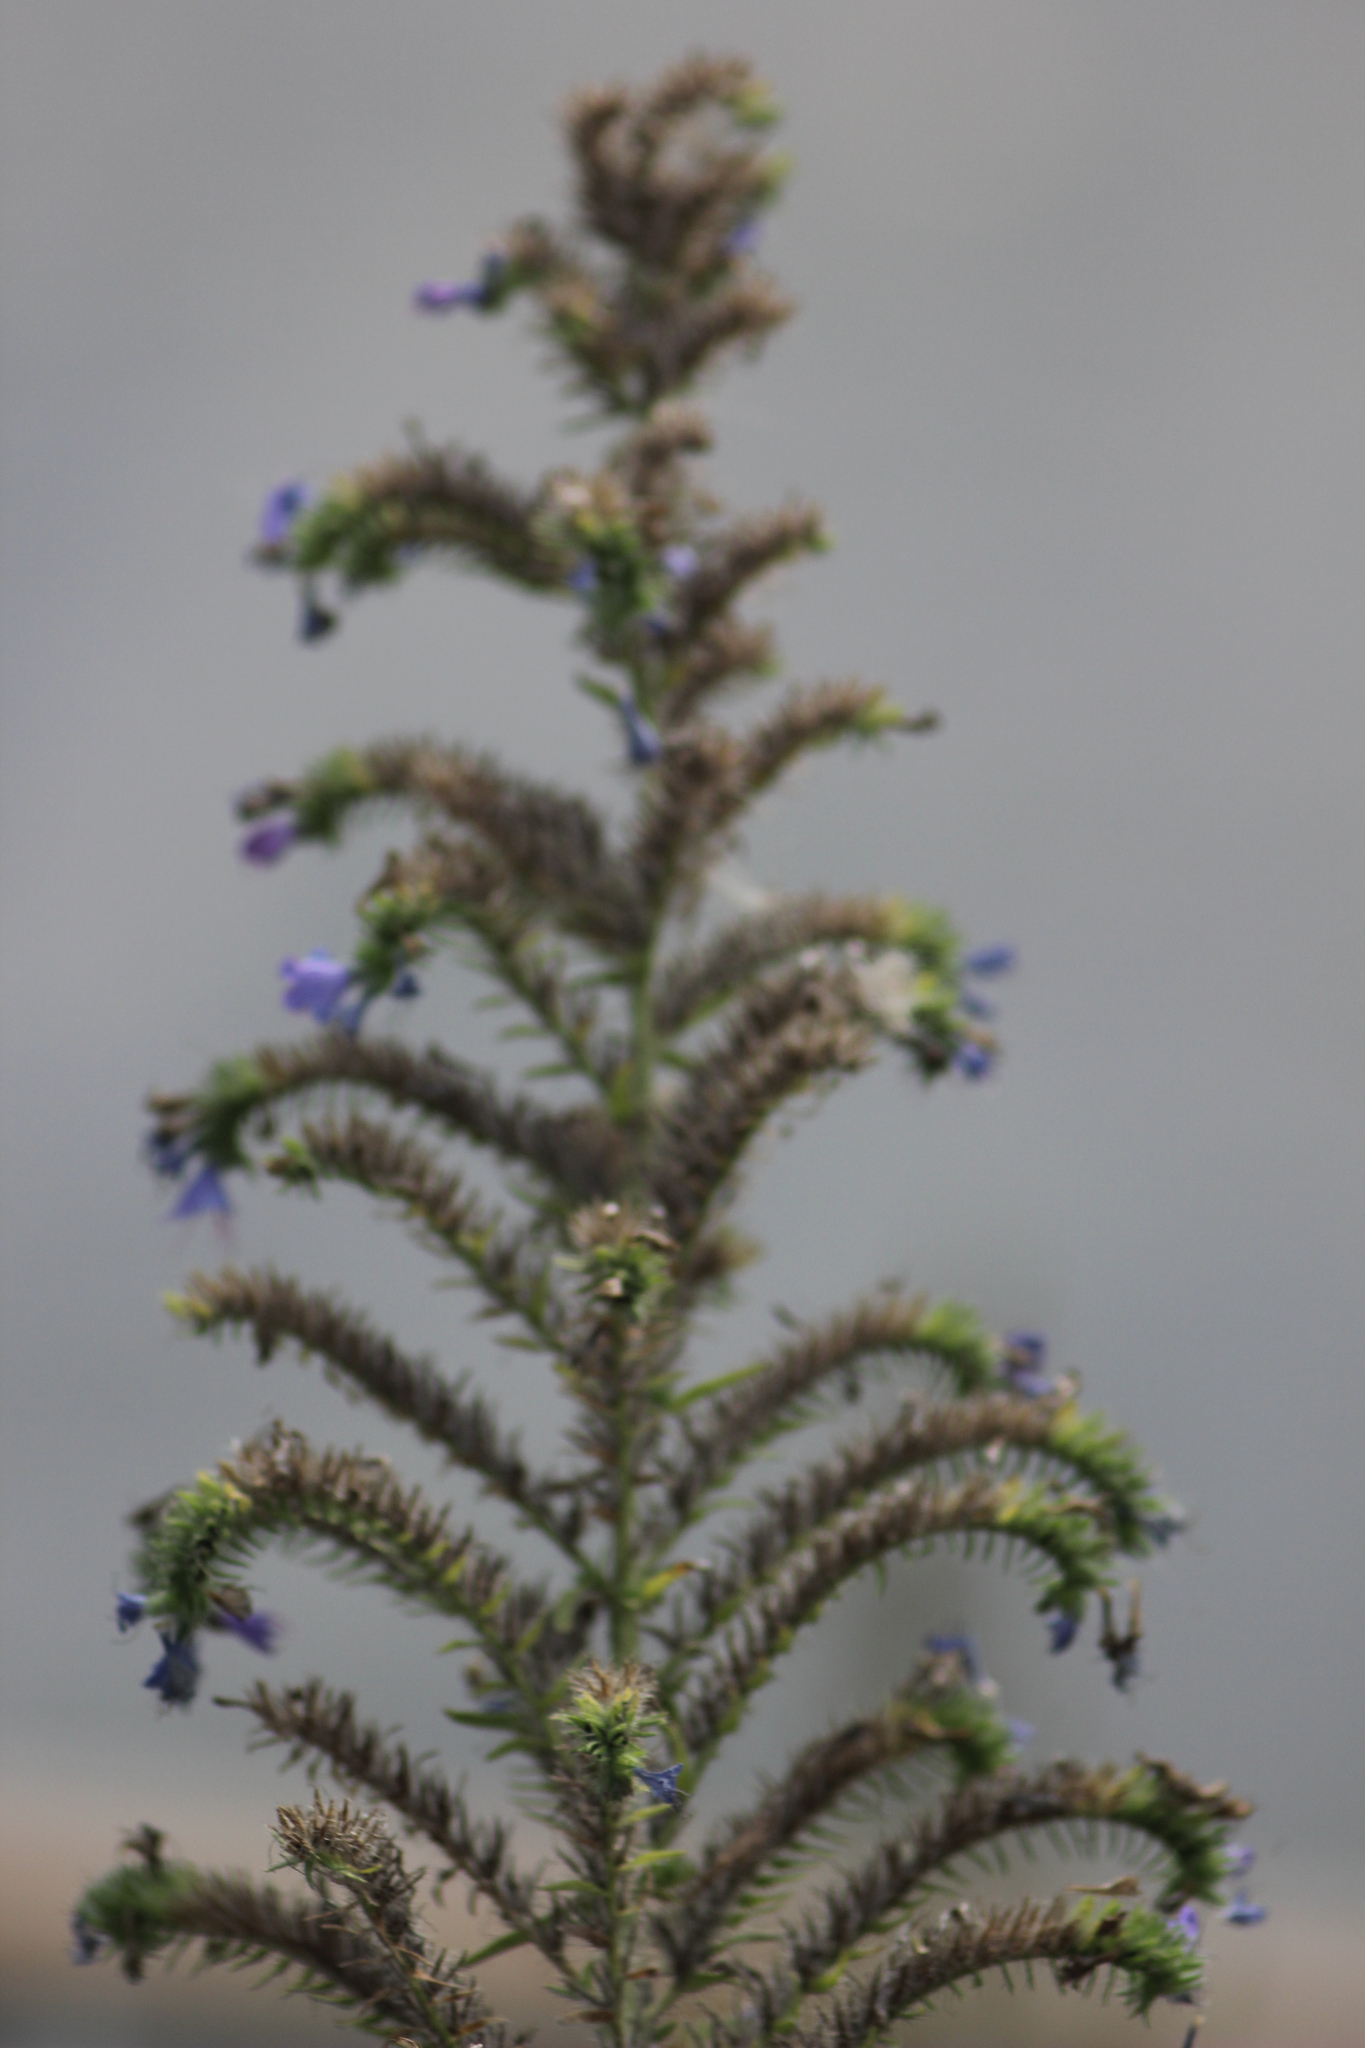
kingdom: Plantae
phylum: Tracheophyta
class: Magnoliopsida
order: Boraginales
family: Boraginaceae
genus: Echium
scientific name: Echium vulgare
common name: Common viper's bugloss
